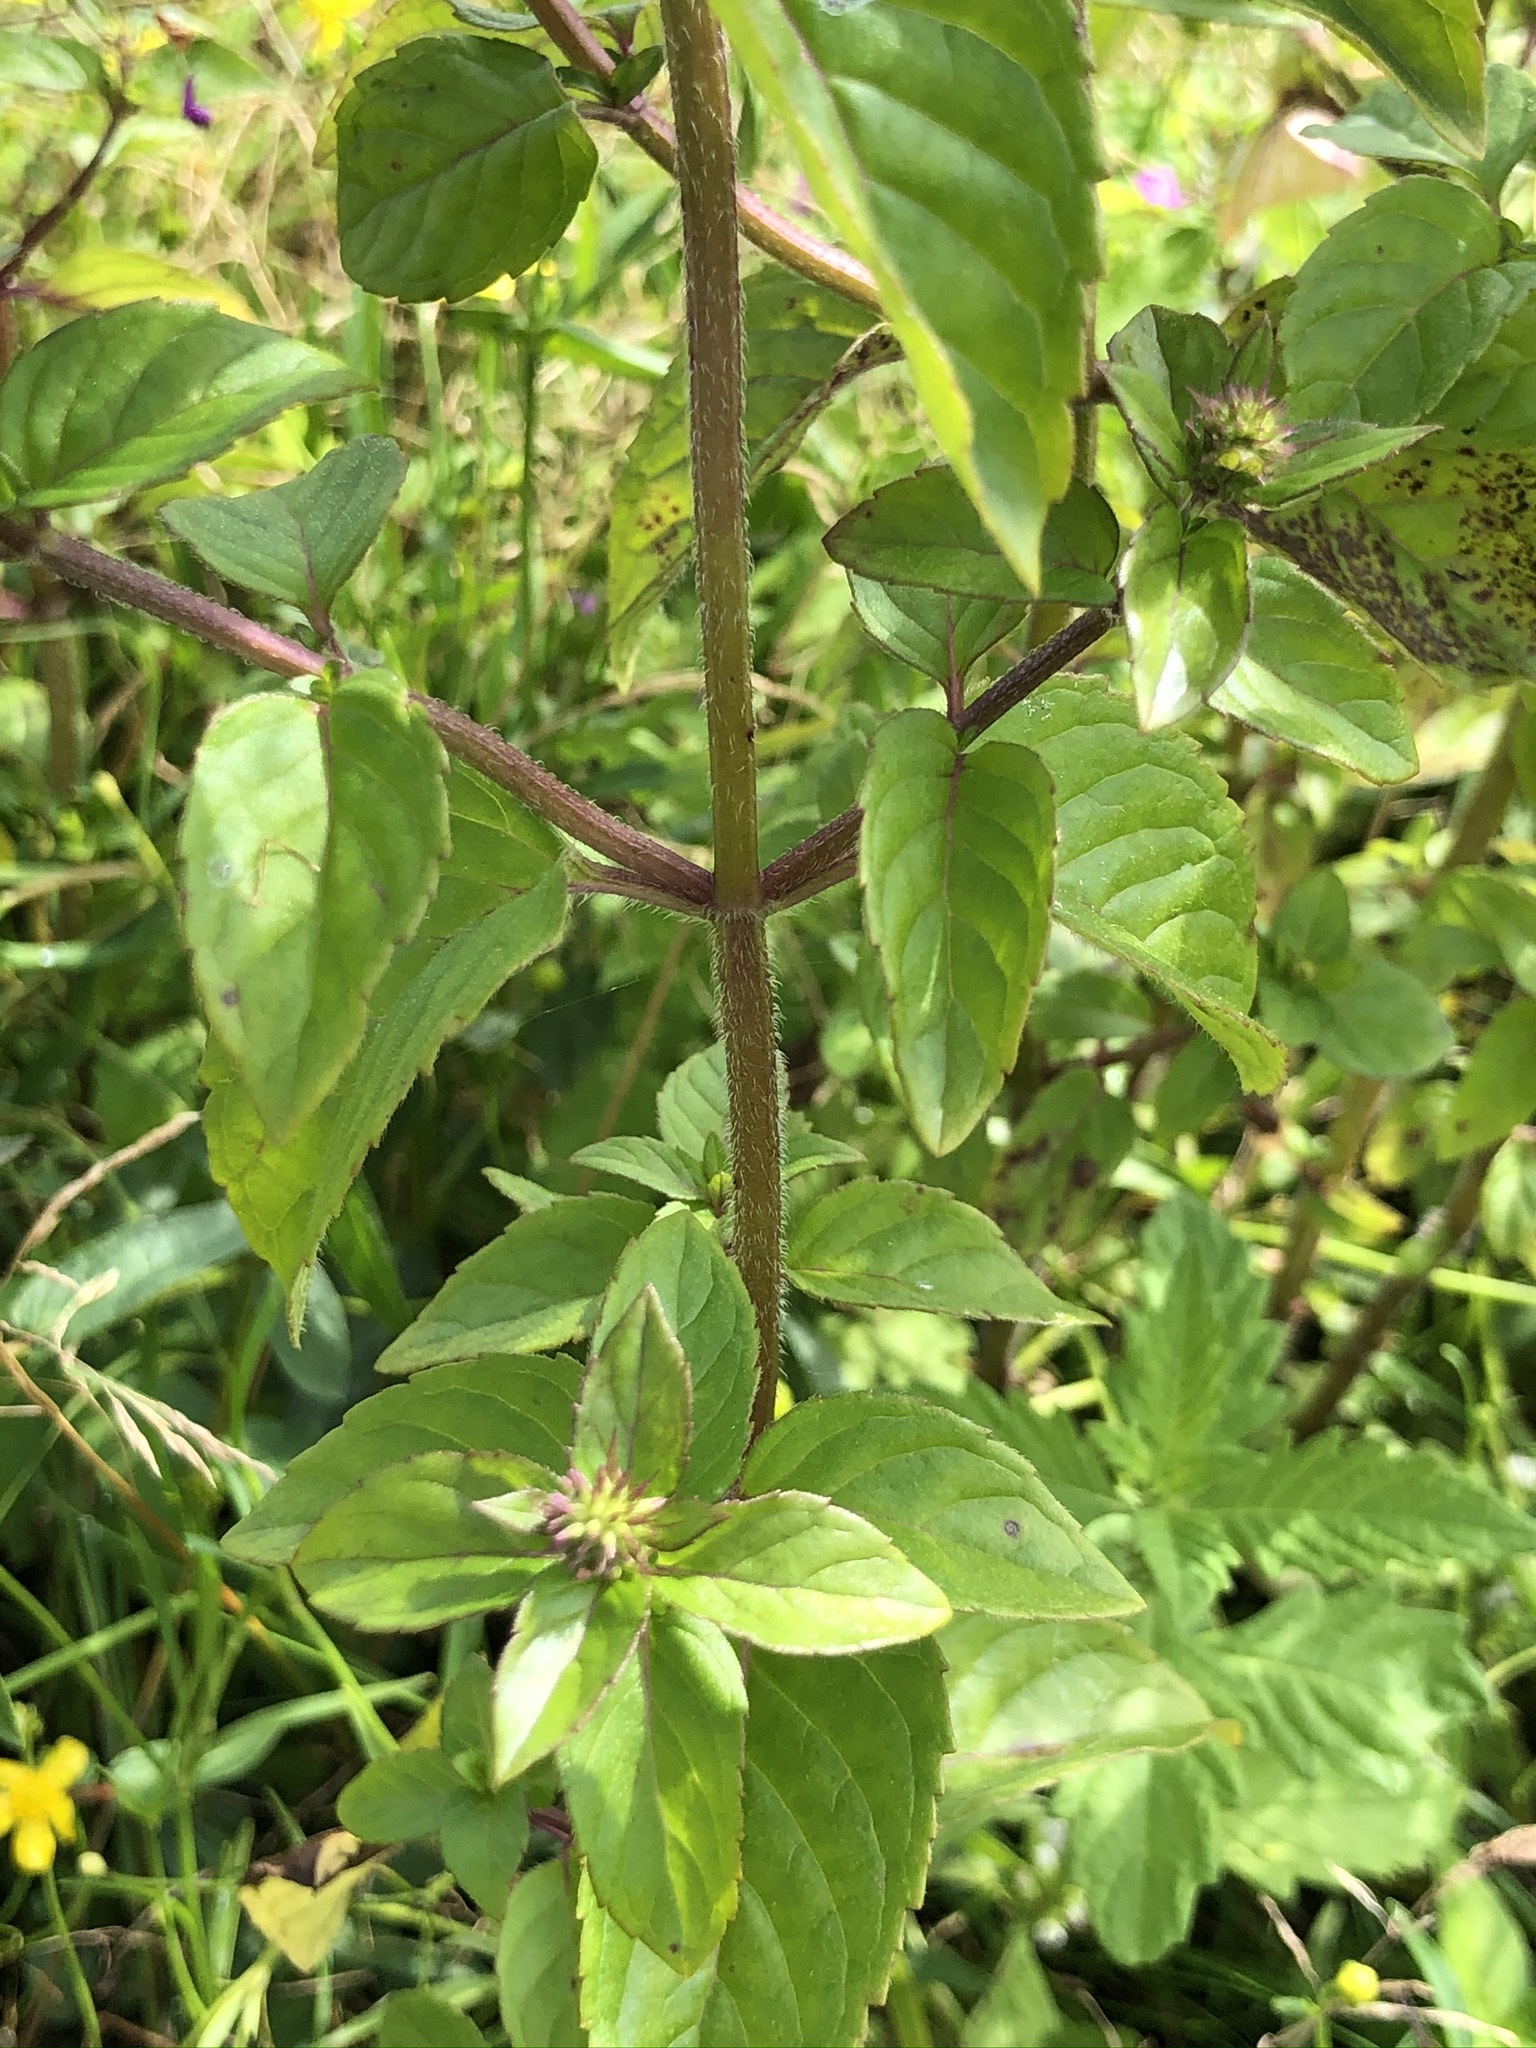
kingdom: Plantae
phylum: Tracheophyta
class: Magnoliopsida
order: Lamiales
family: Lamiaceae
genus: Mentha
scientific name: Mentha aquatica
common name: Water mint
